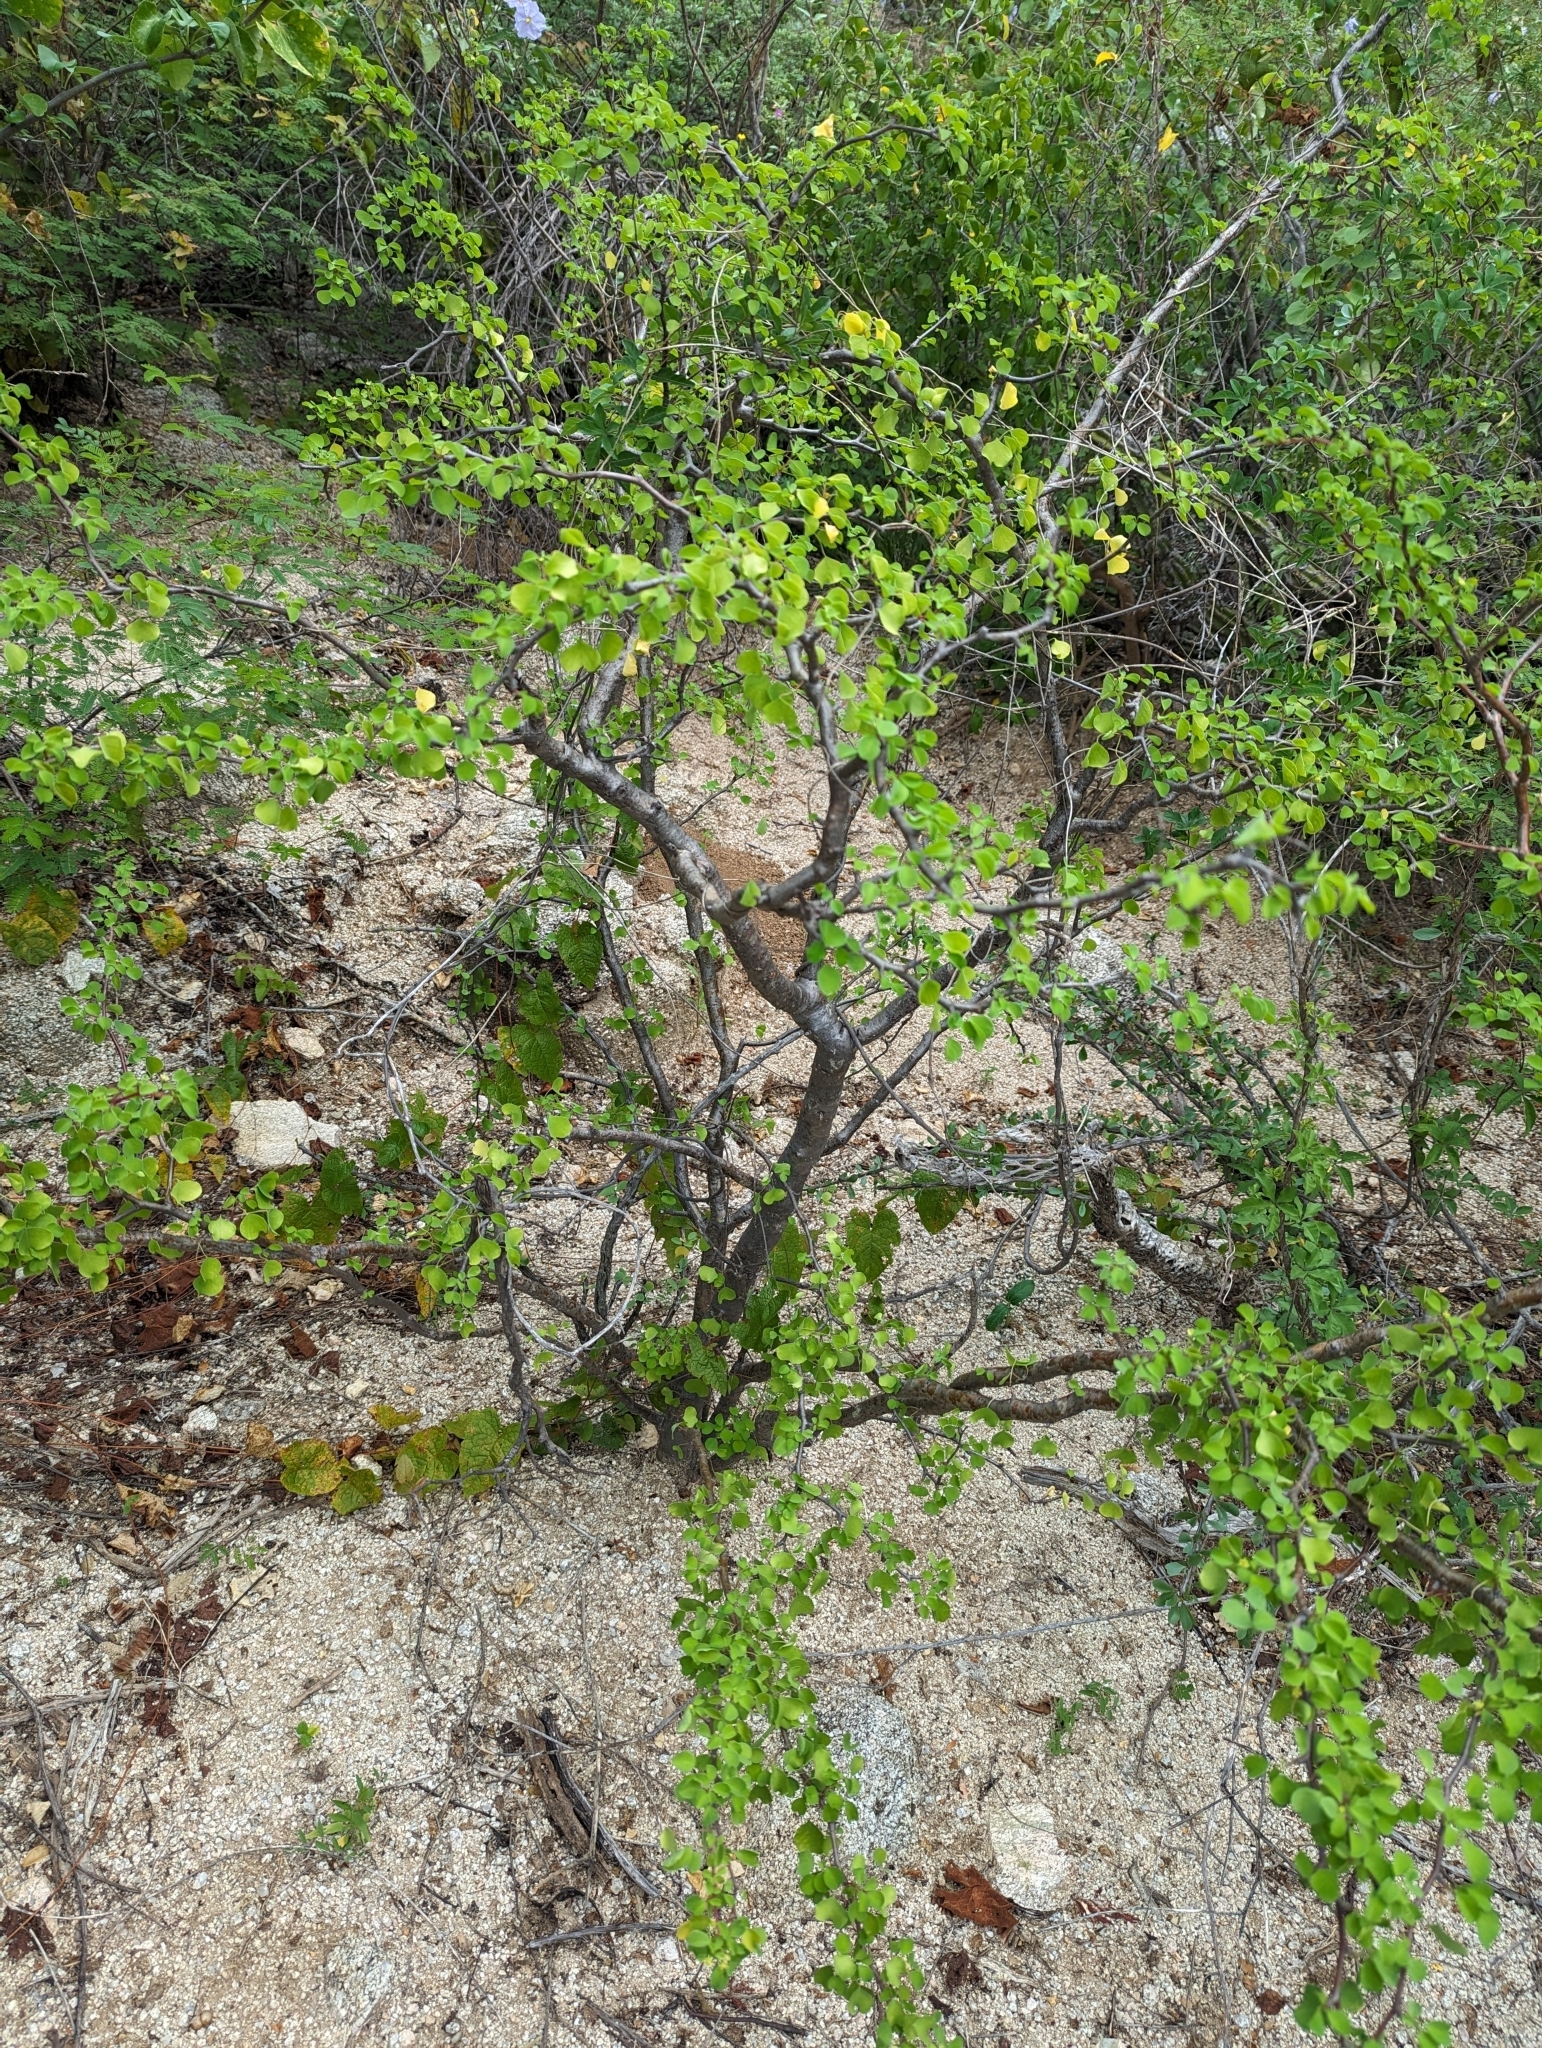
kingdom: Plantae
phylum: Tracheophyta
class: Magnoliopsida
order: Malpighiales
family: Euphorbiaceae
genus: Euphorbia
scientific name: Euphorbia californica
